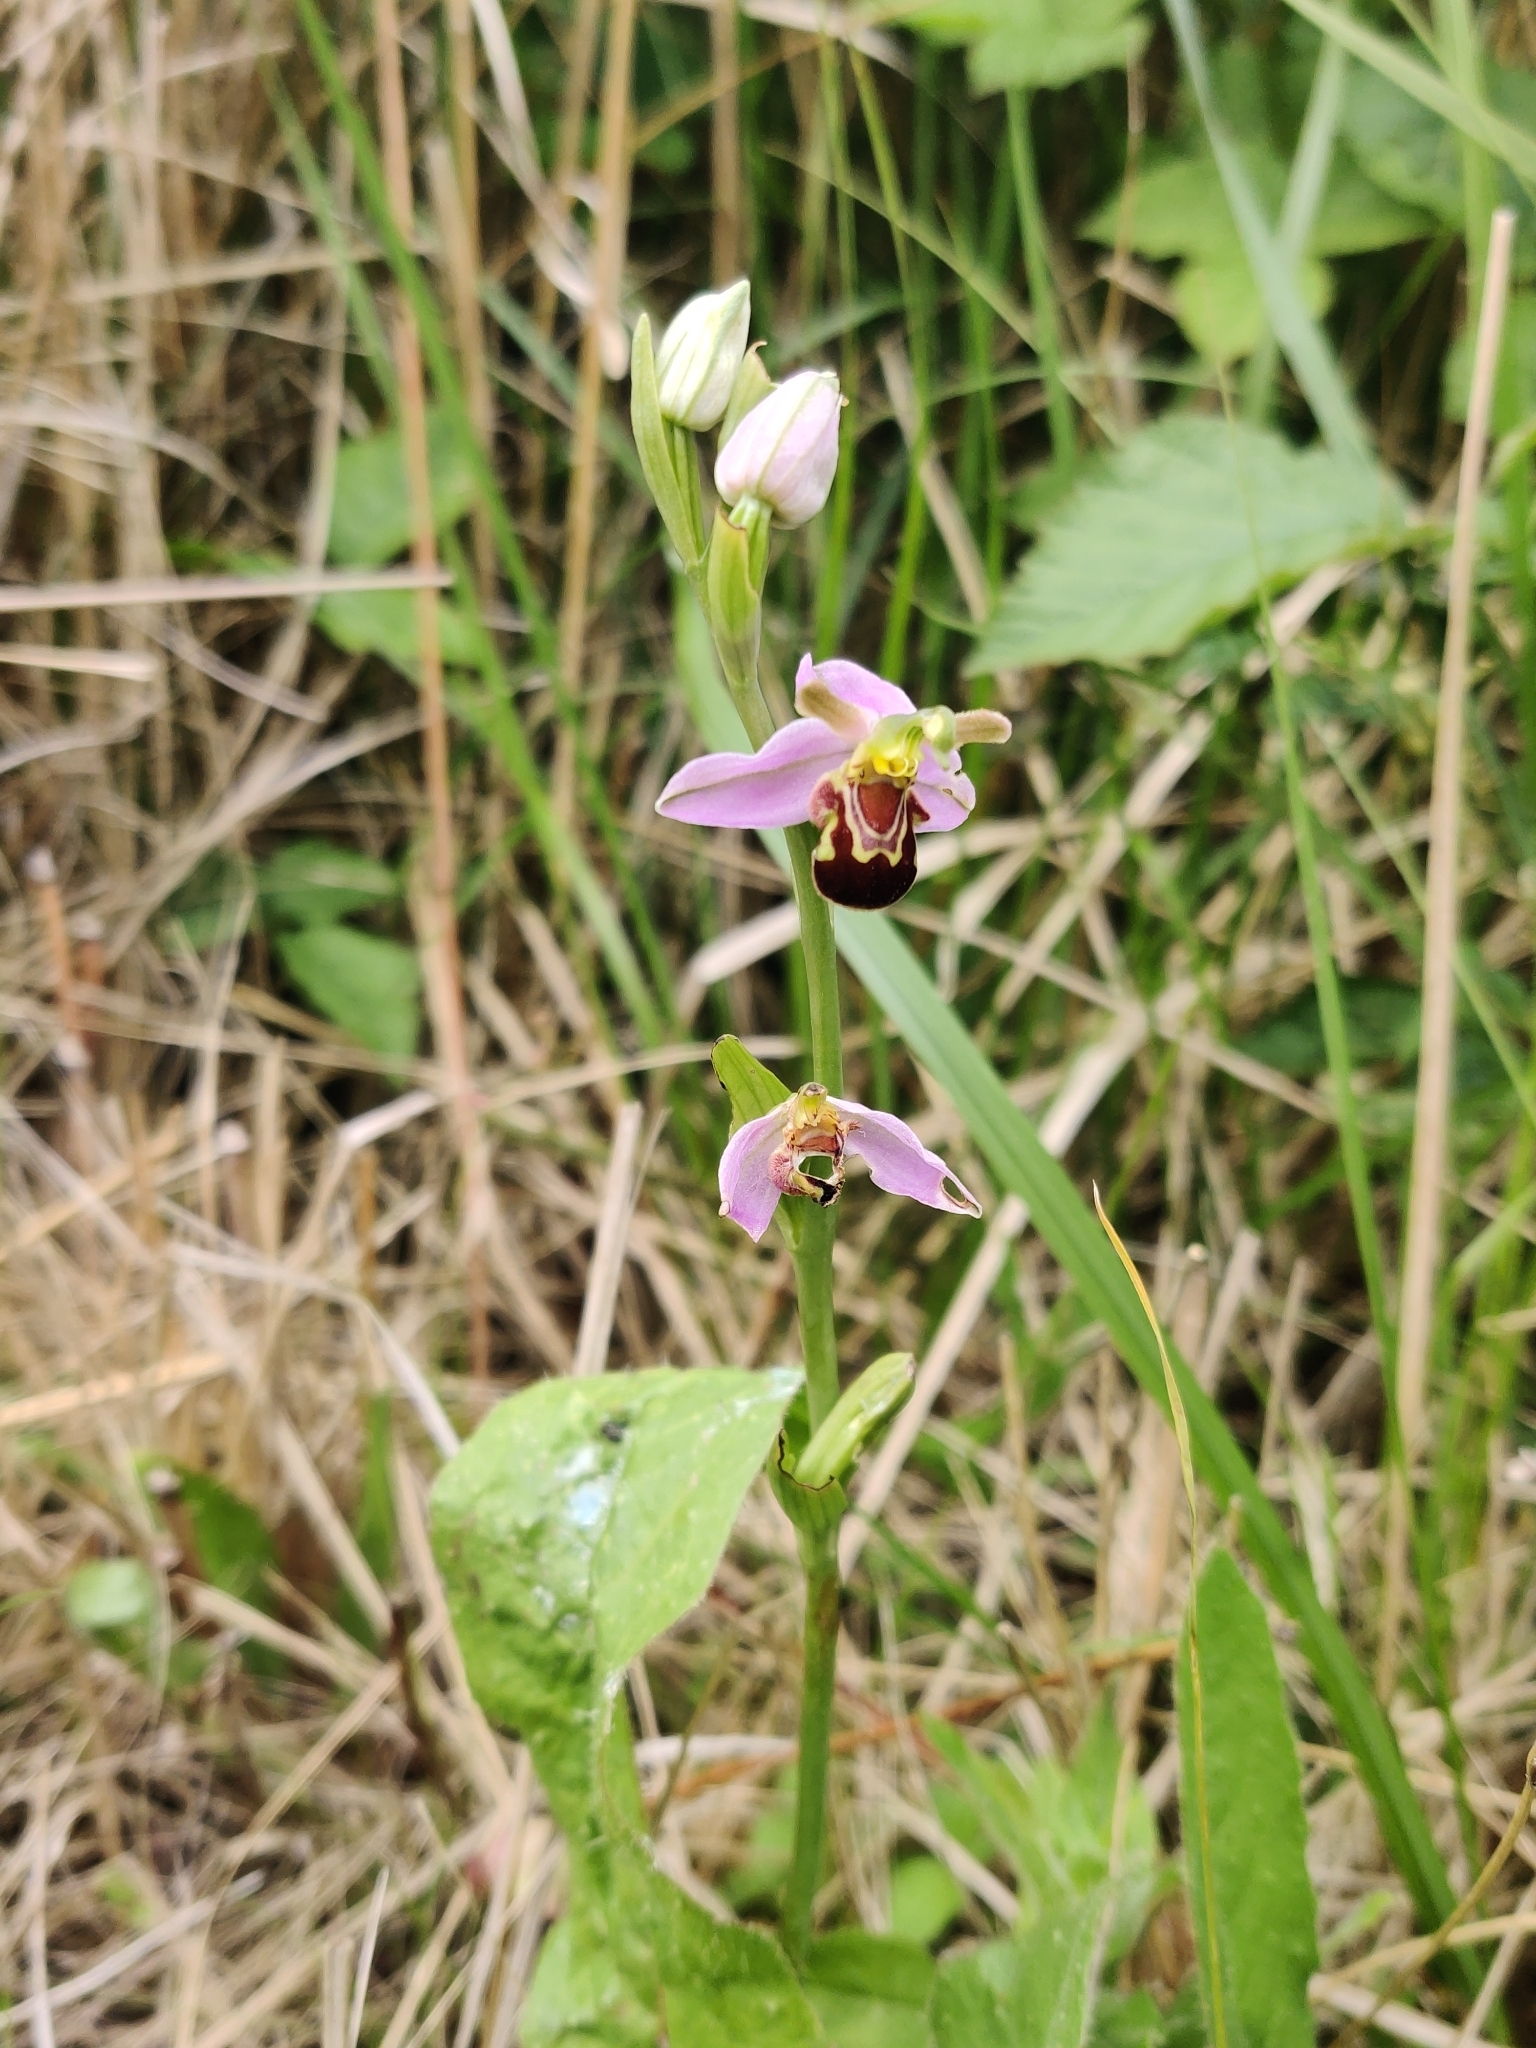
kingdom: Plantae
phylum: Tracheophyta
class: Liliopsida
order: Asparagales
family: Orchidaceae
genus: Ophrys
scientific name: Ophrys apifera
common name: Bee orchid
